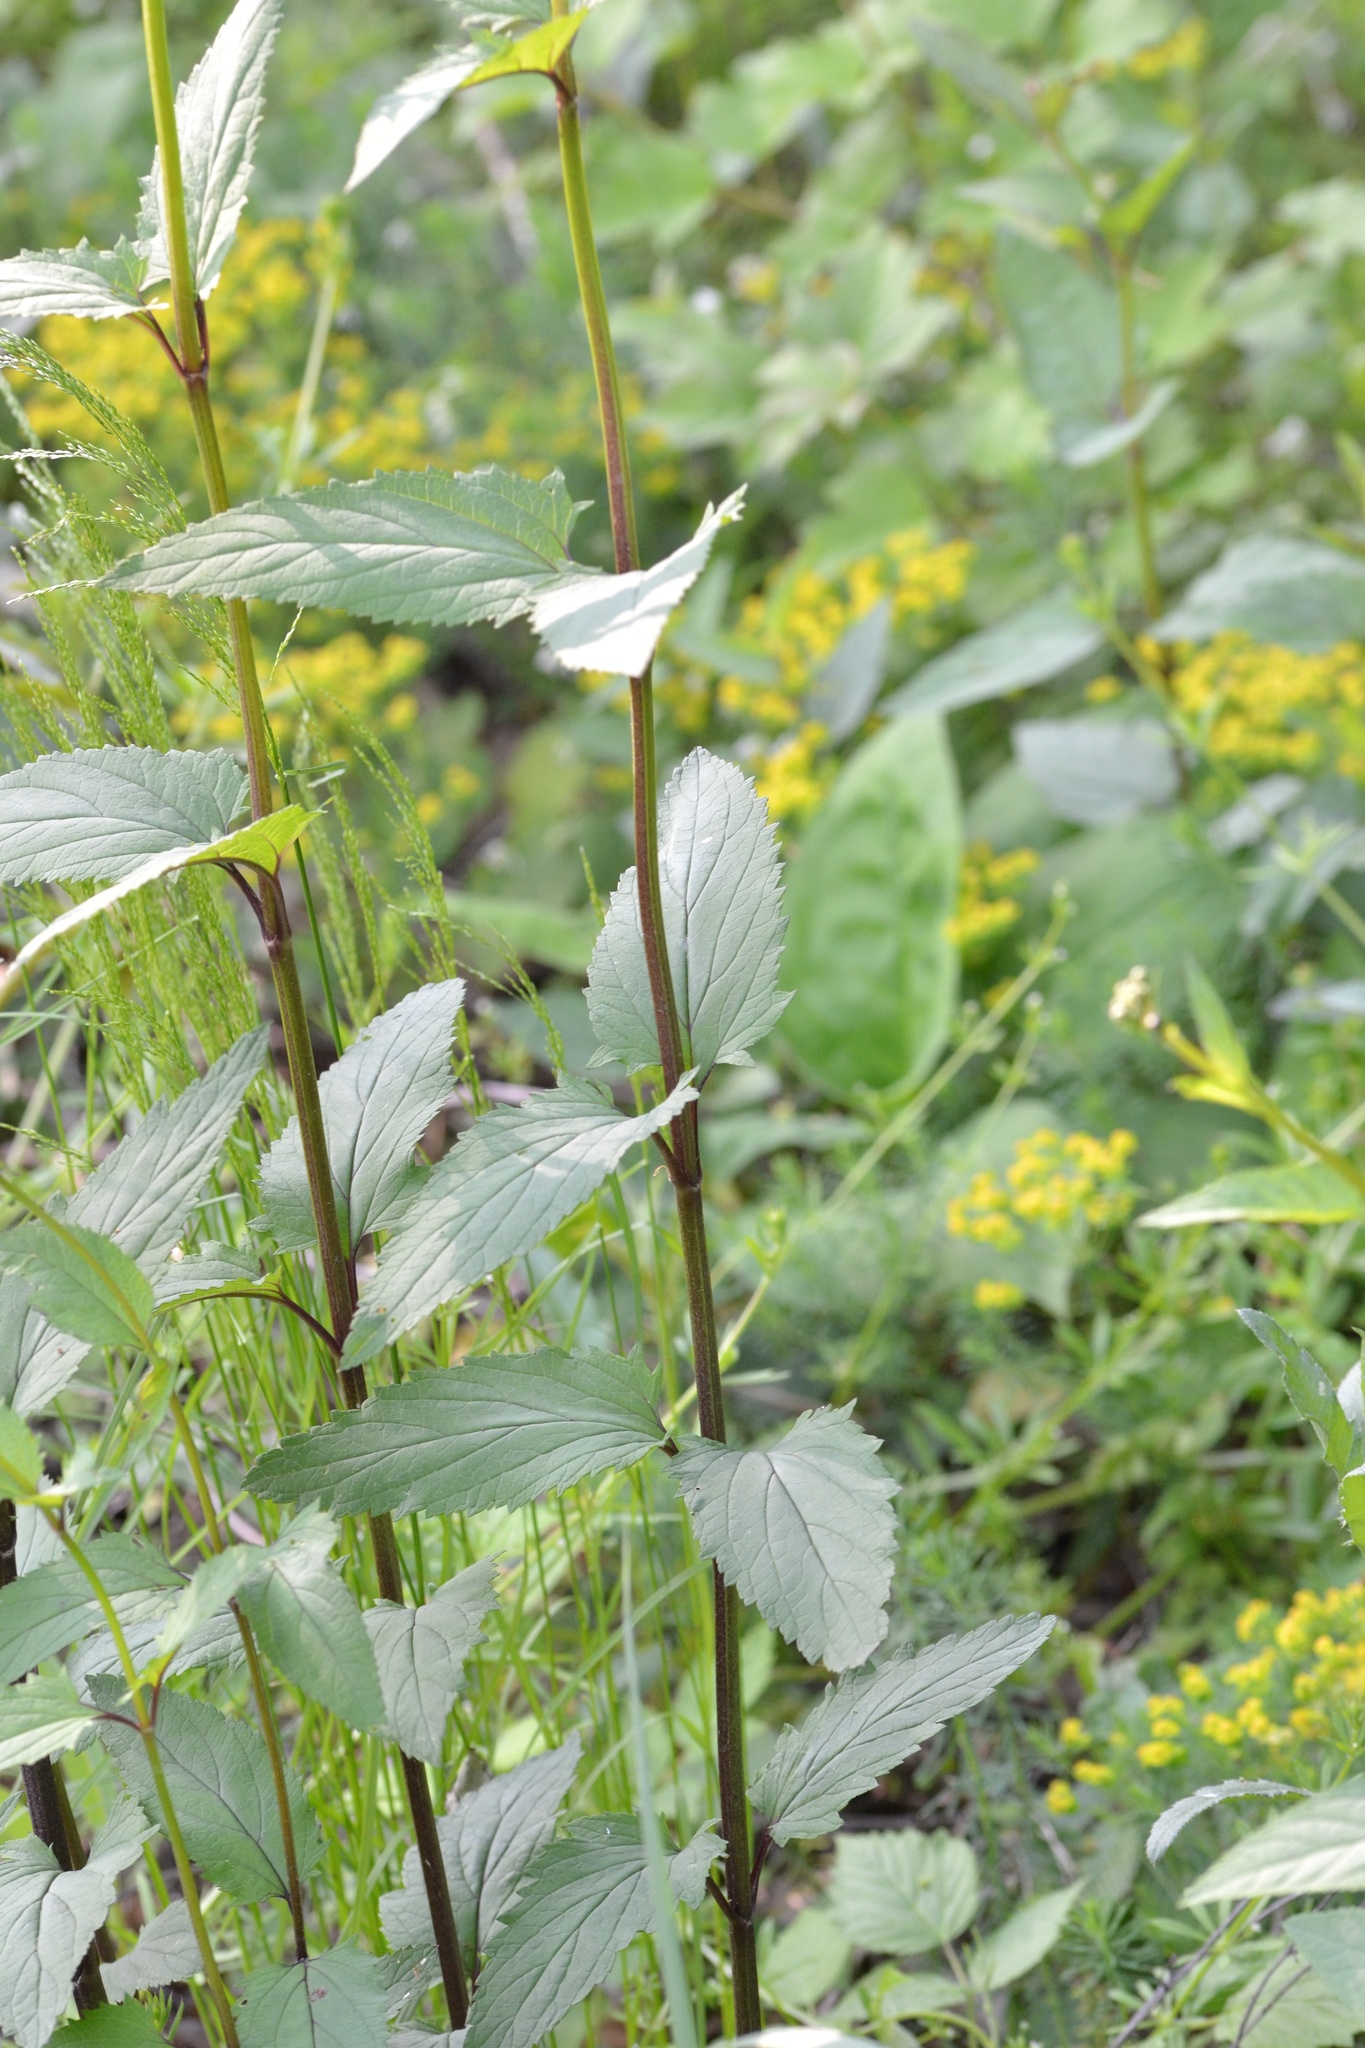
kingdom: Plantae
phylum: Tracheophyta
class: Magnoliopsida
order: Lamiales
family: Scrophulariaceae
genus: Scrophularia
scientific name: Scrophularia nodosa
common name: Common figwort
